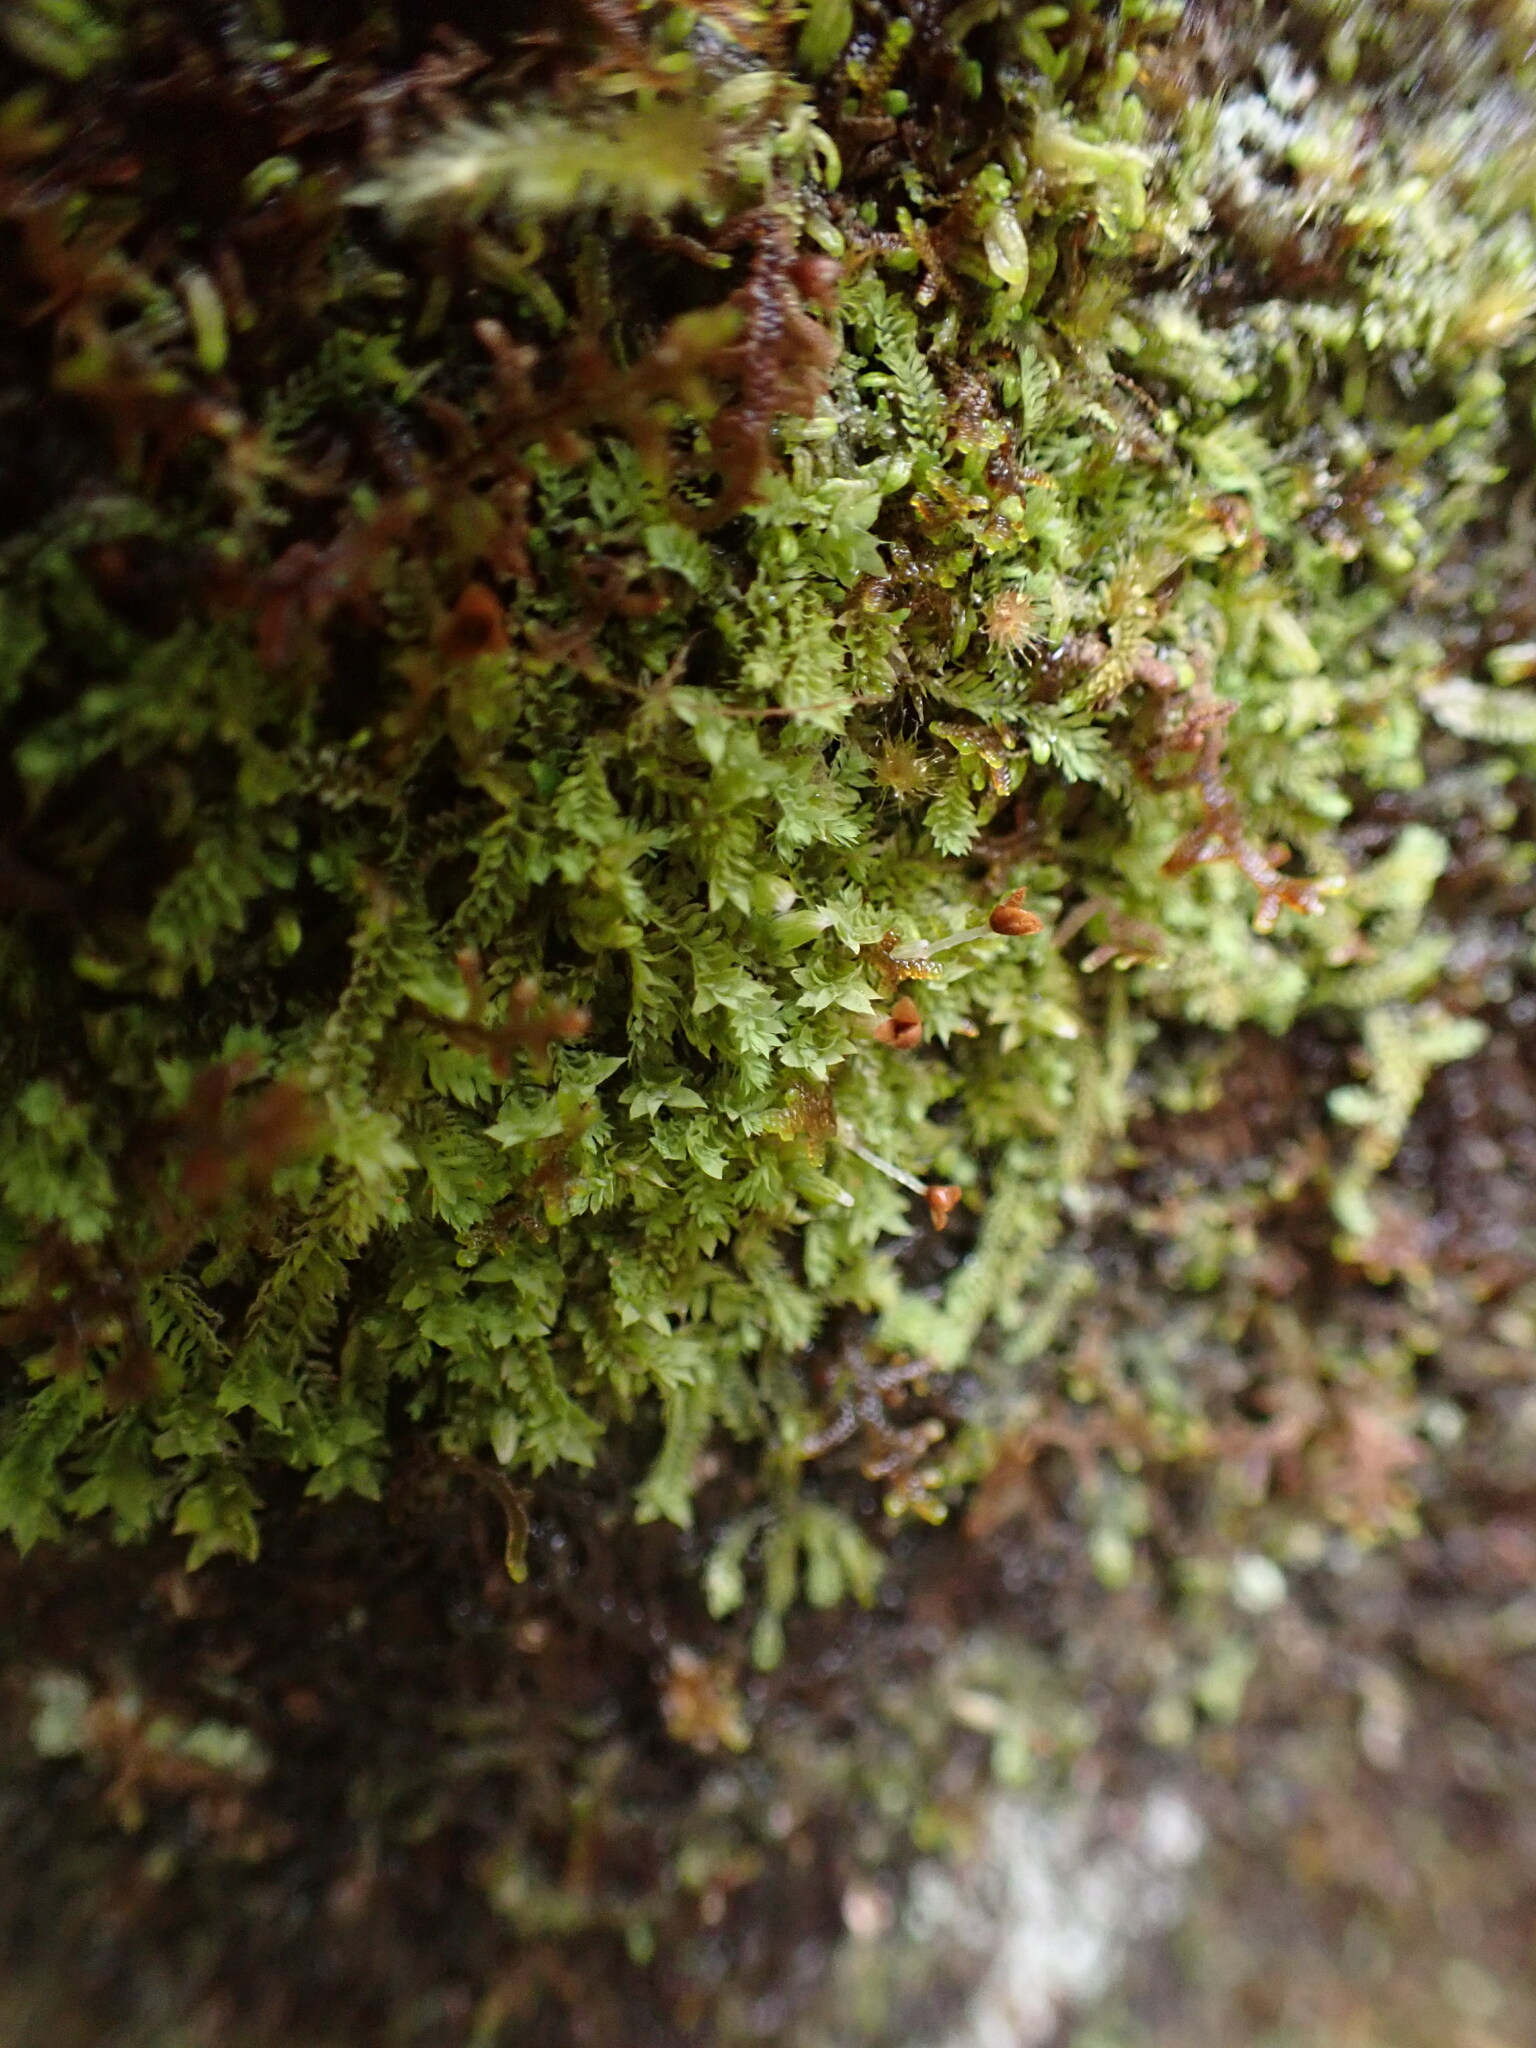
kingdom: Plantae
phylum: Marchantiophyta
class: Jungermanniopsida
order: Jungermanniales
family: Scapaniaceae
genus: Douinia
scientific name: Douinia ovata
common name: Waxy earwort
